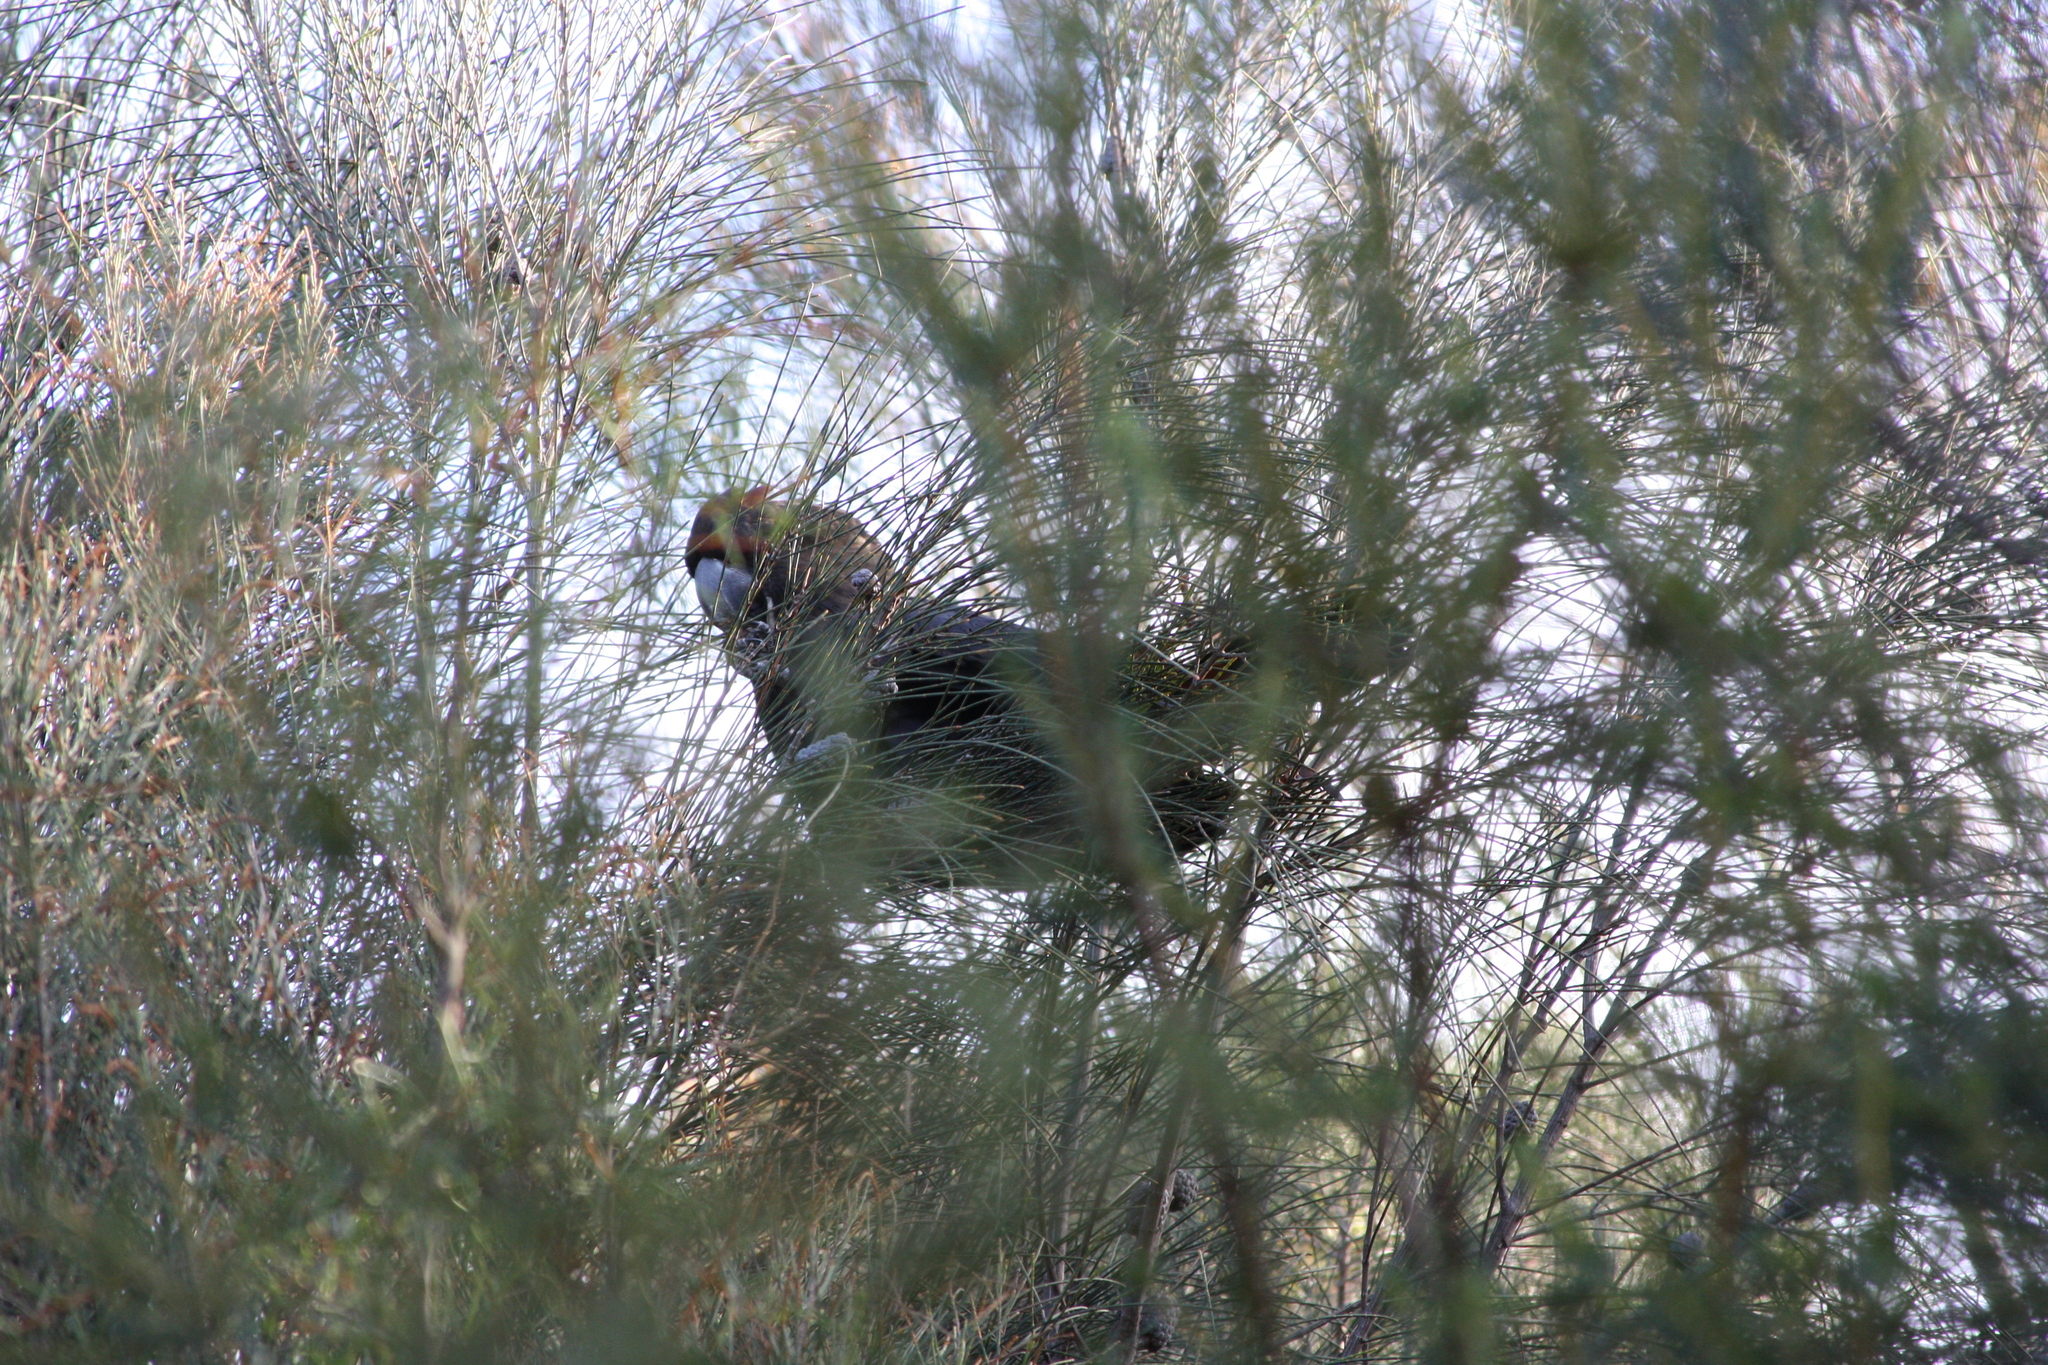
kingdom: Animalia
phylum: Chordata
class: Aves
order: Psittaciformes
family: Psittacidae
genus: Calyptorhynchus
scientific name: Calyptorhynchus lathami
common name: Glossy black cockatoo
